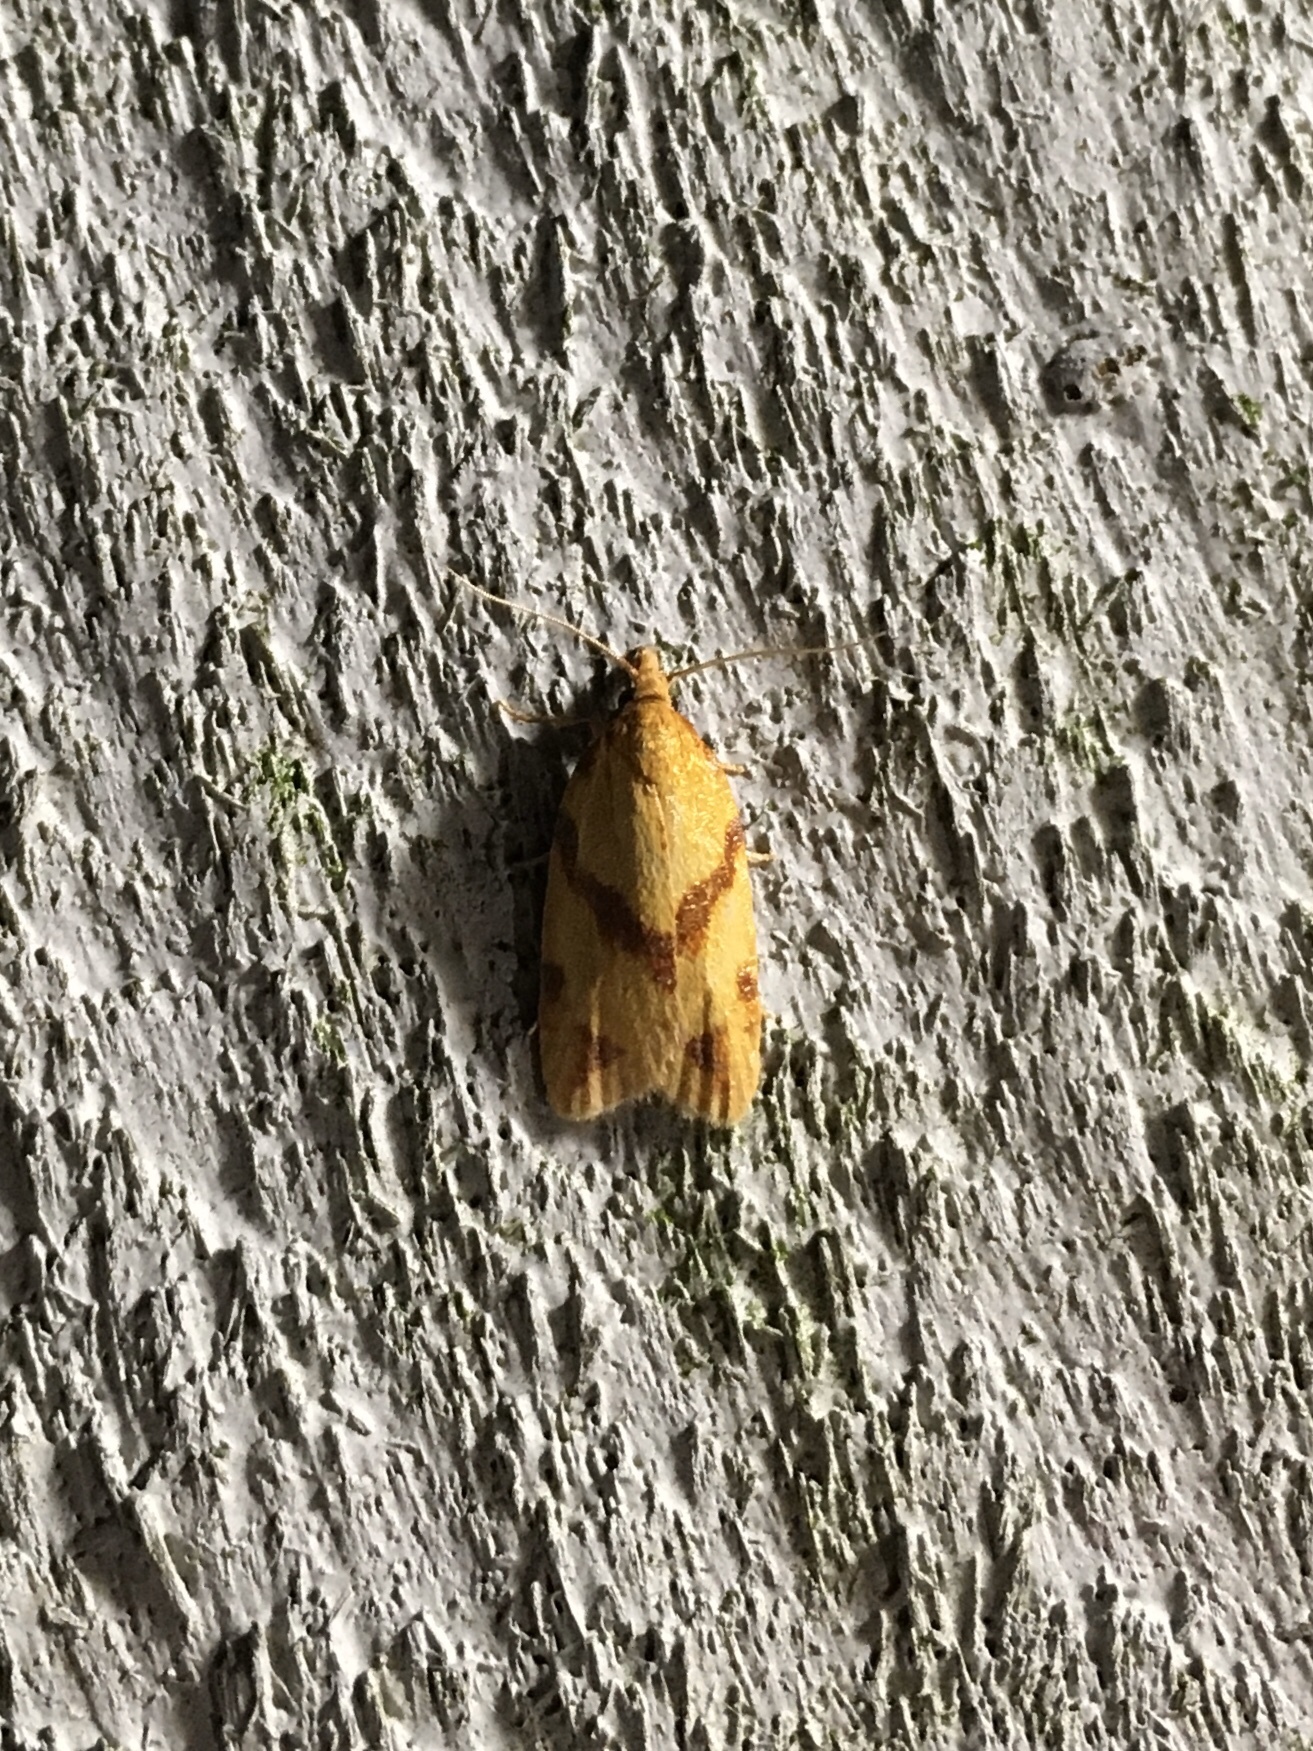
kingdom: Animalia
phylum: Arthropoda
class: Insecta
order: Lepidoptera
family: Tortricidae
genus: Sparganothis
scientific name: Sparganothis unifasciana
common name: One-lined sparganothis moth
